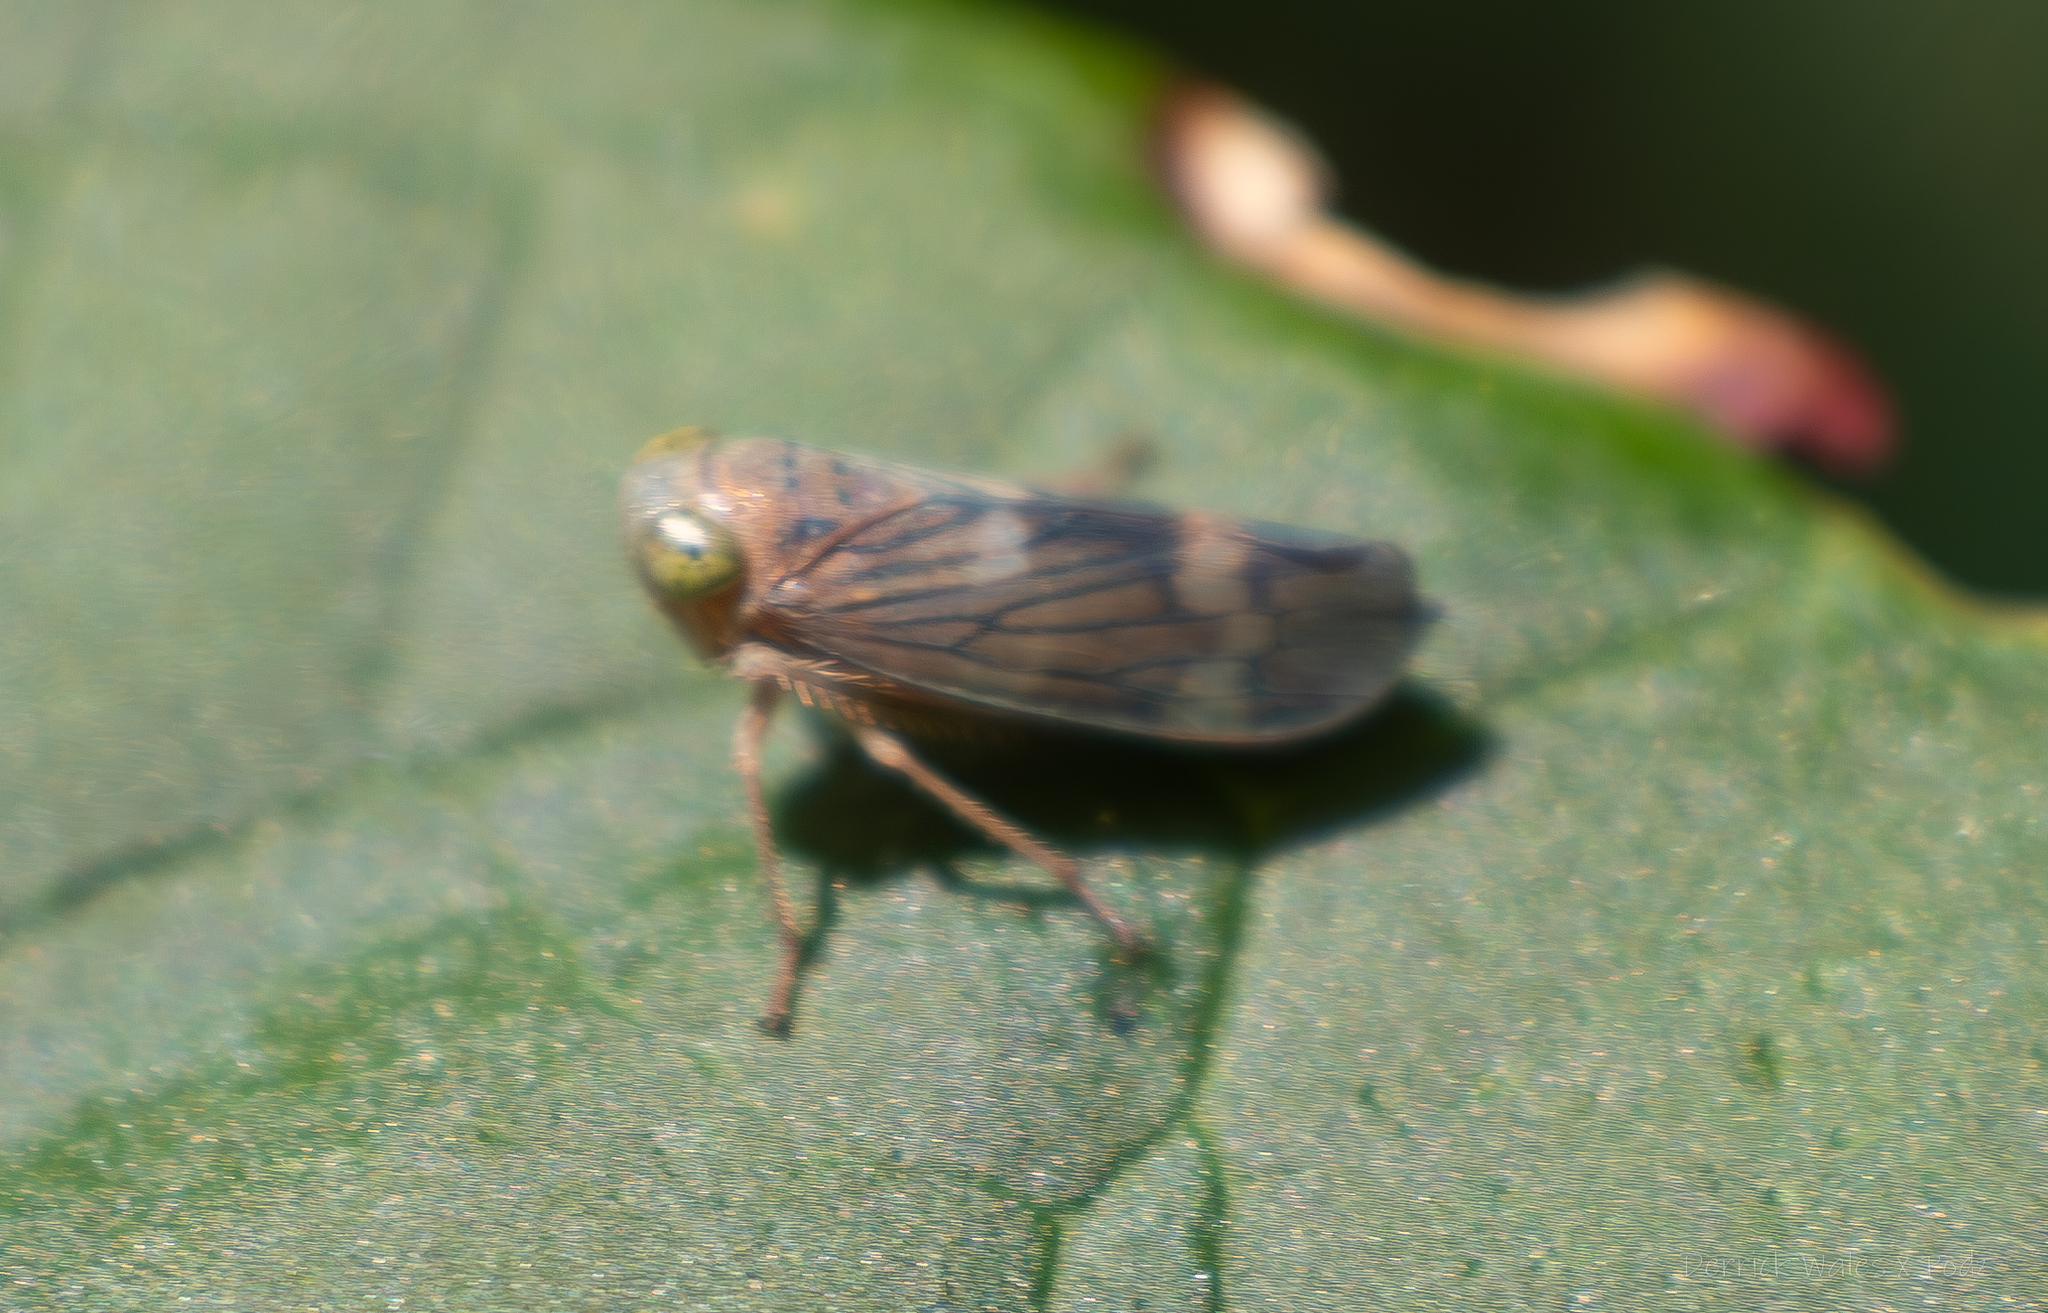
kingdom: Animalia
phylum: Arthropoda
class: Insecta
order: Hemiptera
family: Cicadellidae
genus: Jikradia
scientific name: Jikradia olitoria
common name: Coppery leafhopper
